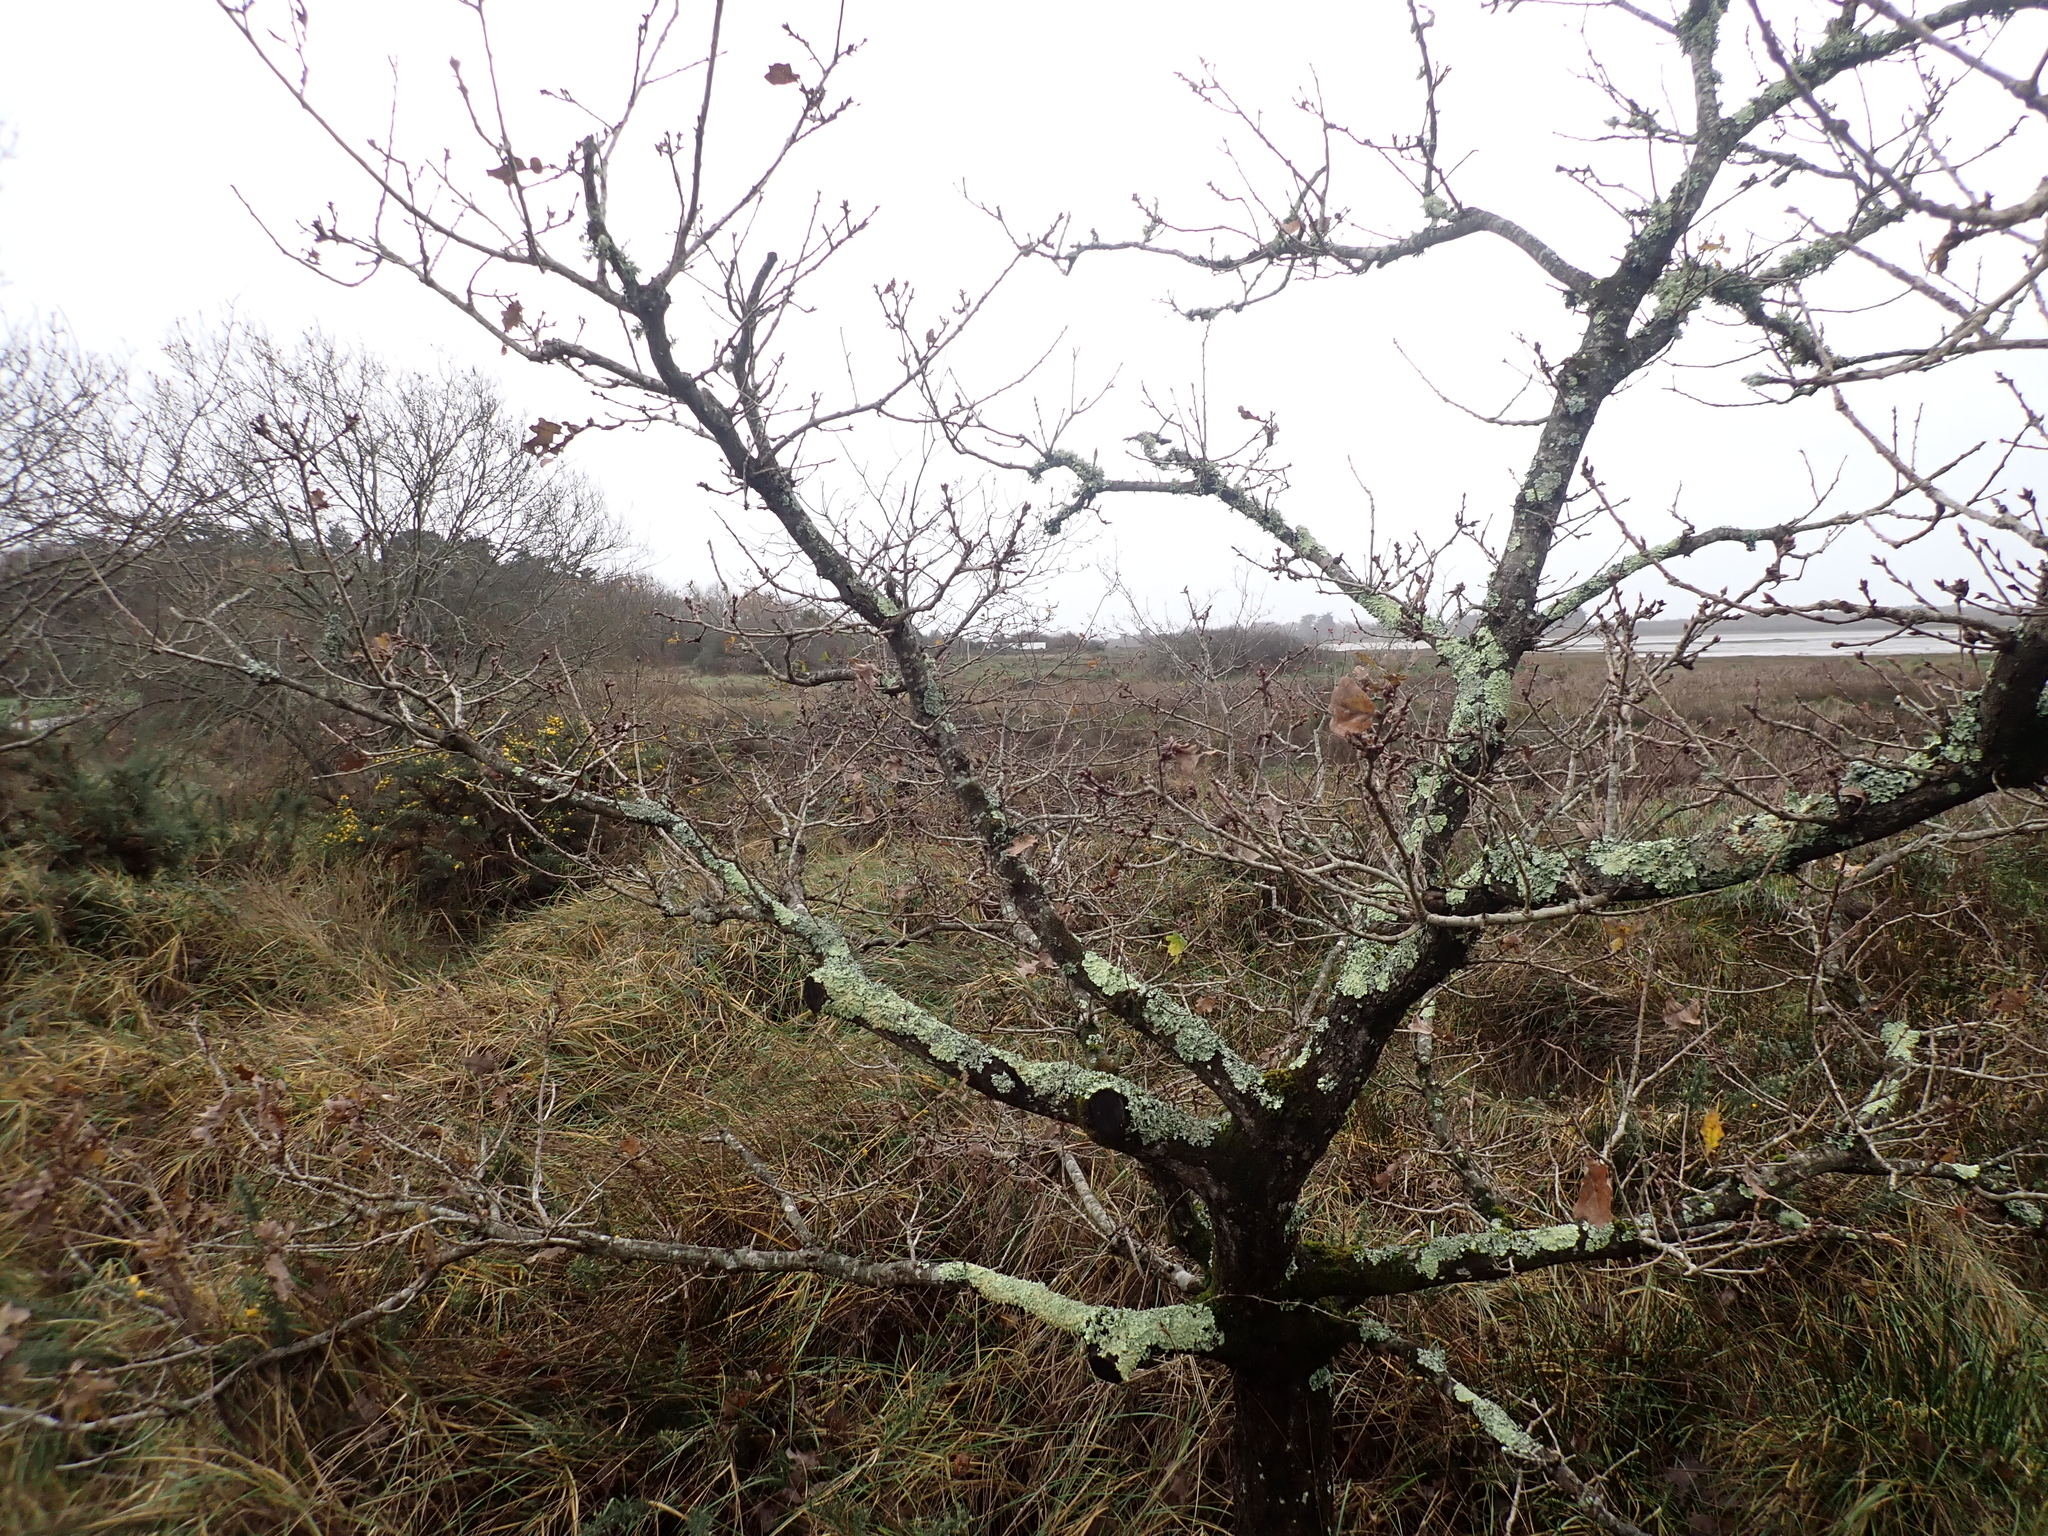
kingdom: Animalia
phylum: Arthropoda
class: Insecta
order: Hymenoptera
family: Cynipidae
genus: Andricus
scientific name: Andricus kollari
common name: Marble gall
